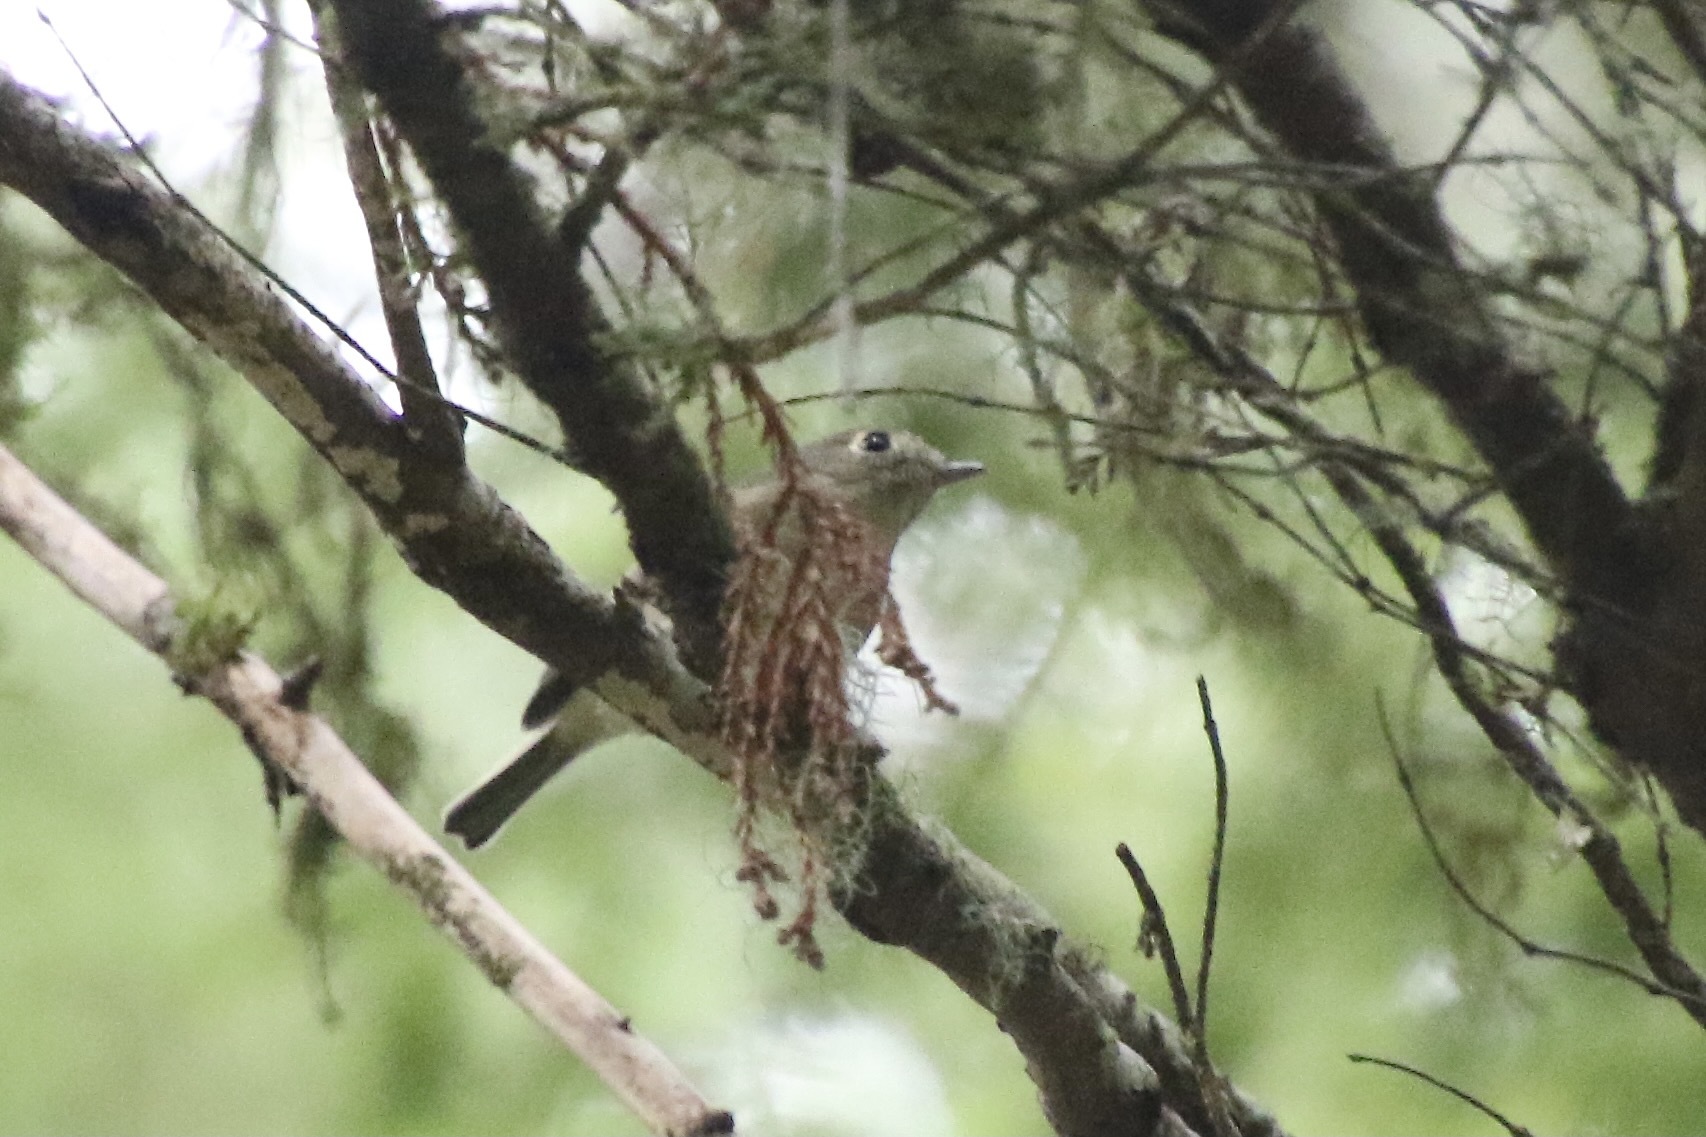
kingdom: Animalia
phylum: Chordata
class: Aves
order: Passeriformes
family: Vireonidae
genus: Vireo
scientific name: Vireo huttoni
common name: Hutton's vireo
